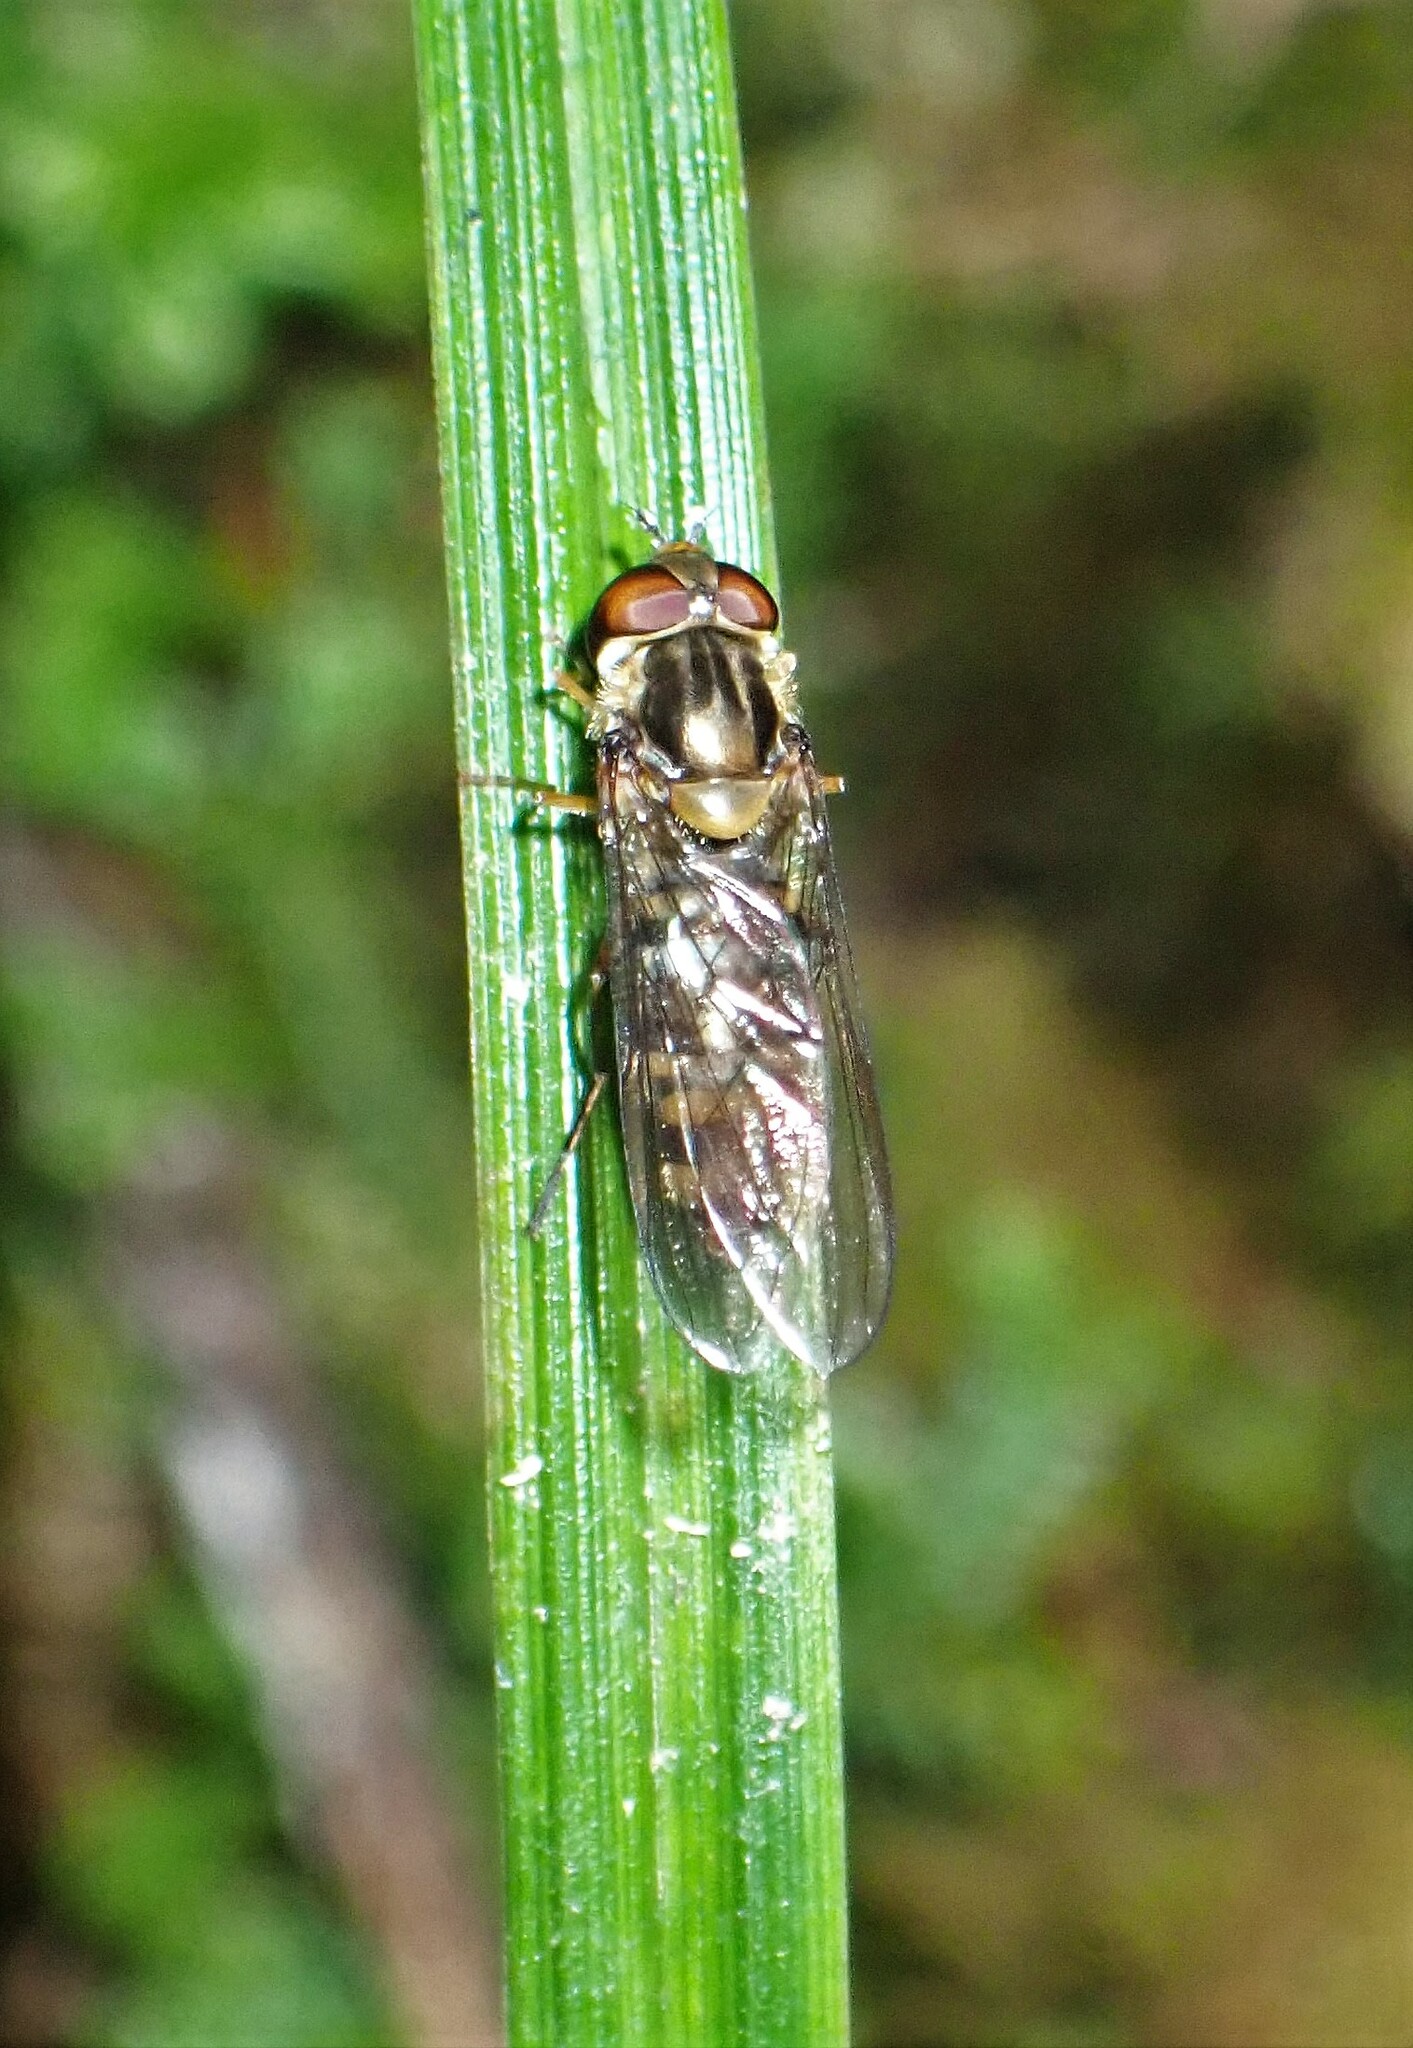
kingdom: Animalia
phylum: Arthropoda
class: Insecta
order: Diptera
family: Syrphidae
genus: Episyrphus
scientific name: Episyrphus balteatus
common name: Marmalade hoverfly
